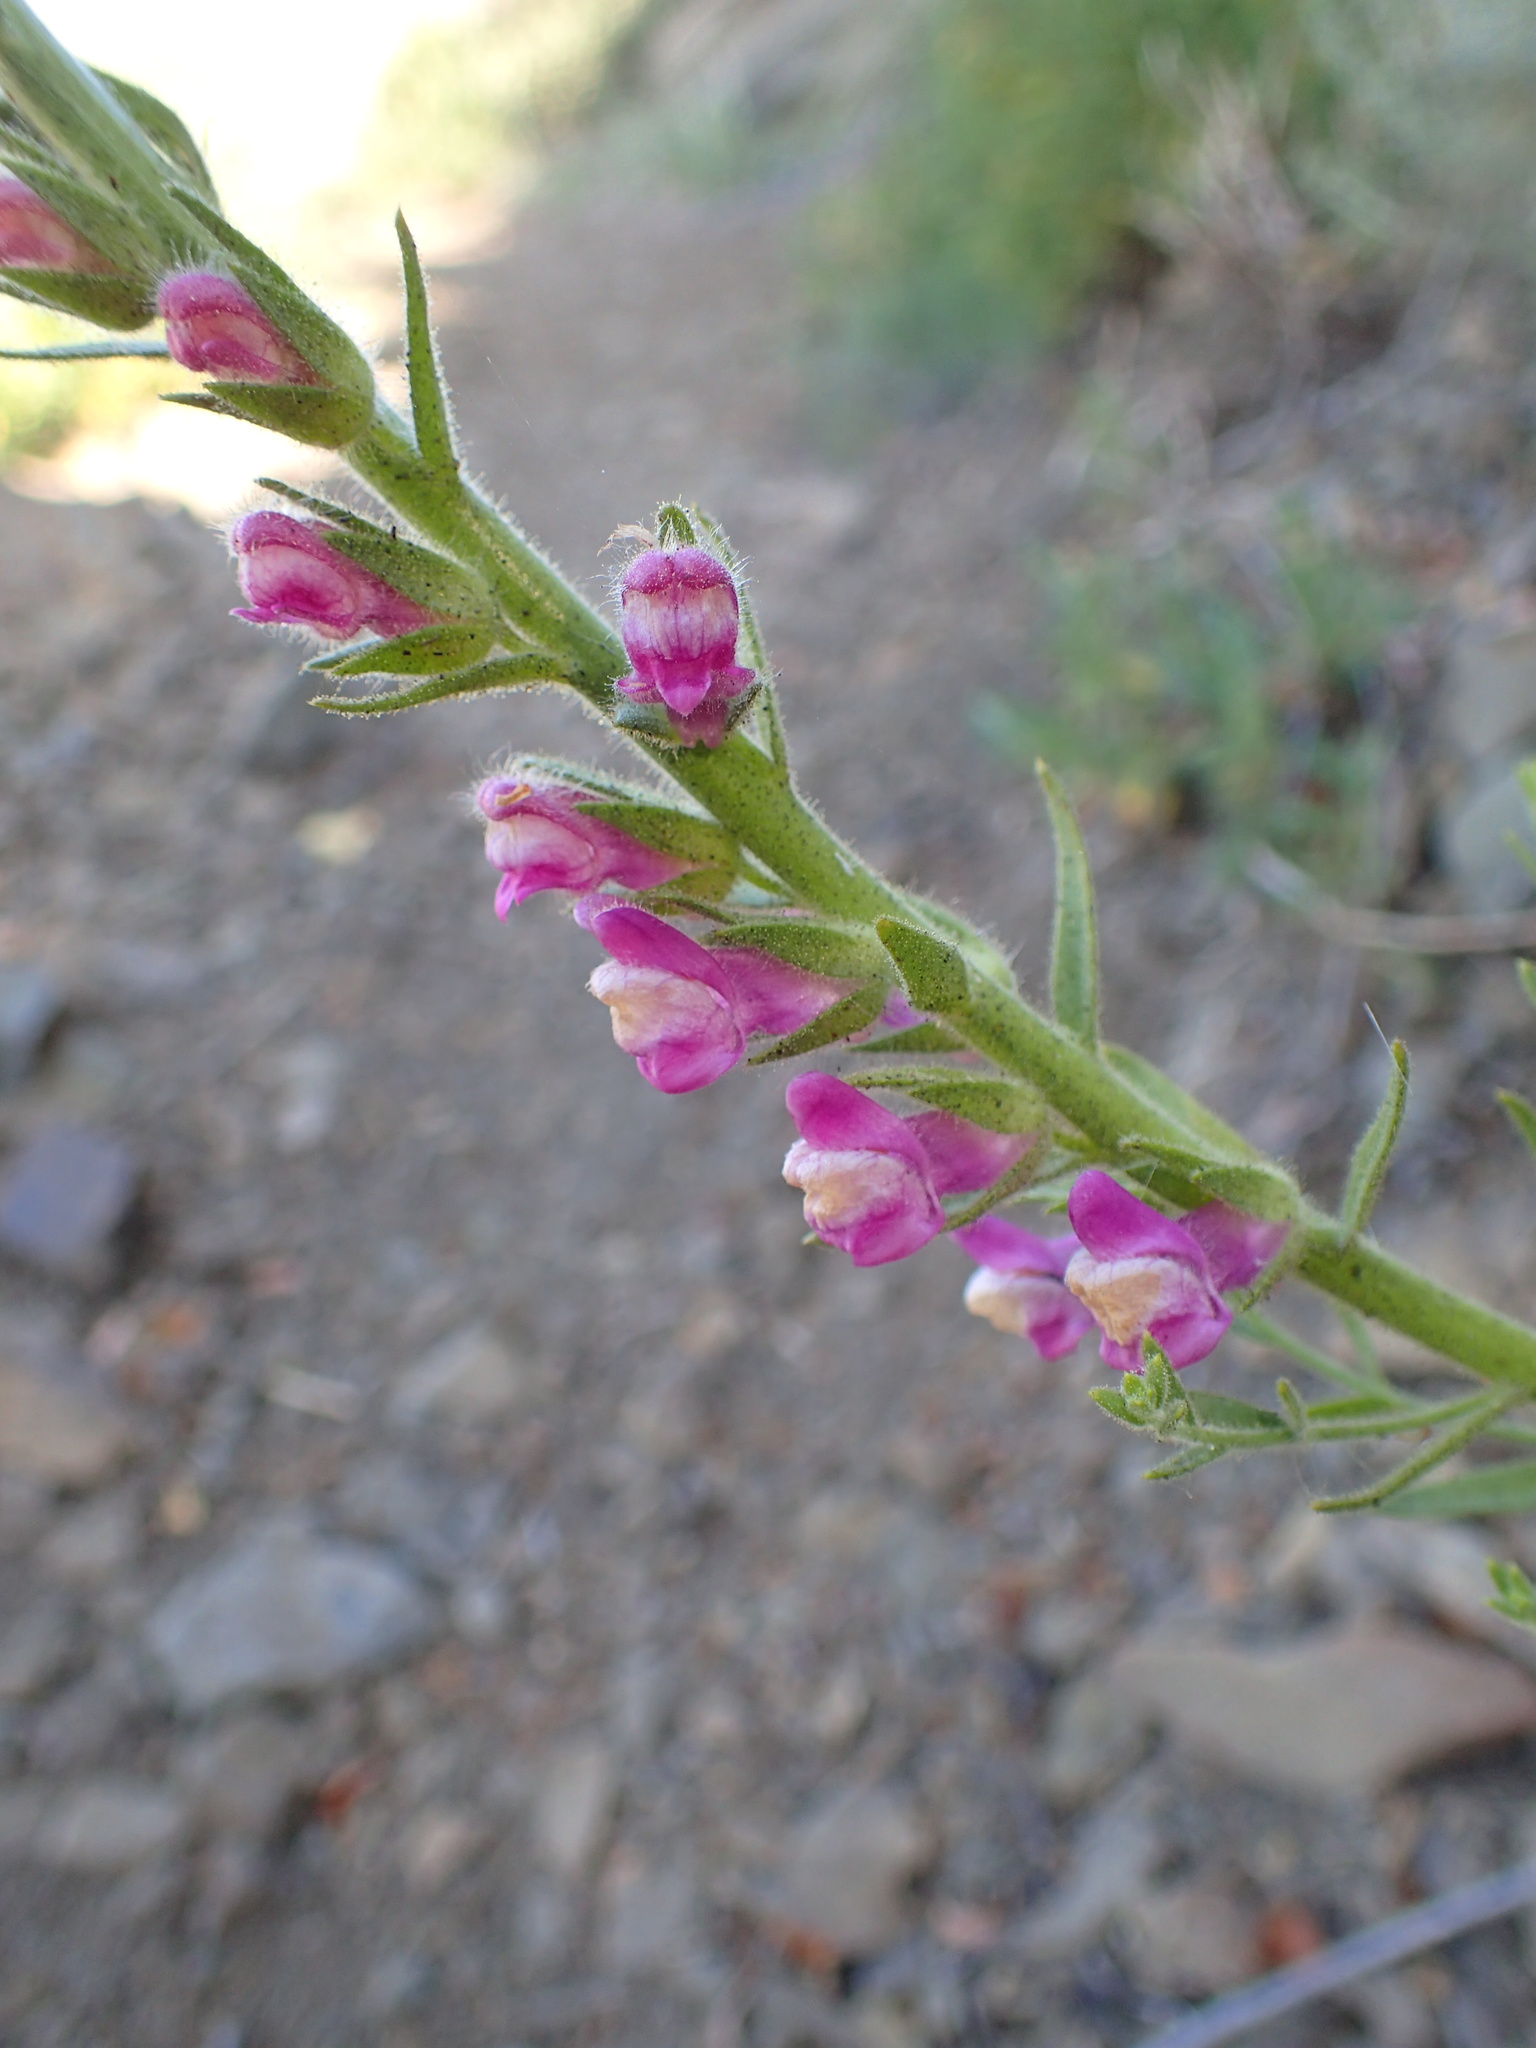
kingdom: Plantae
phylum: Tracheophyta
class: Magnoliopsida
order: Lamiales
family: Plantaginaceae
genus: Sairocarpus
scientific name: Sairocarpus multiflorus
